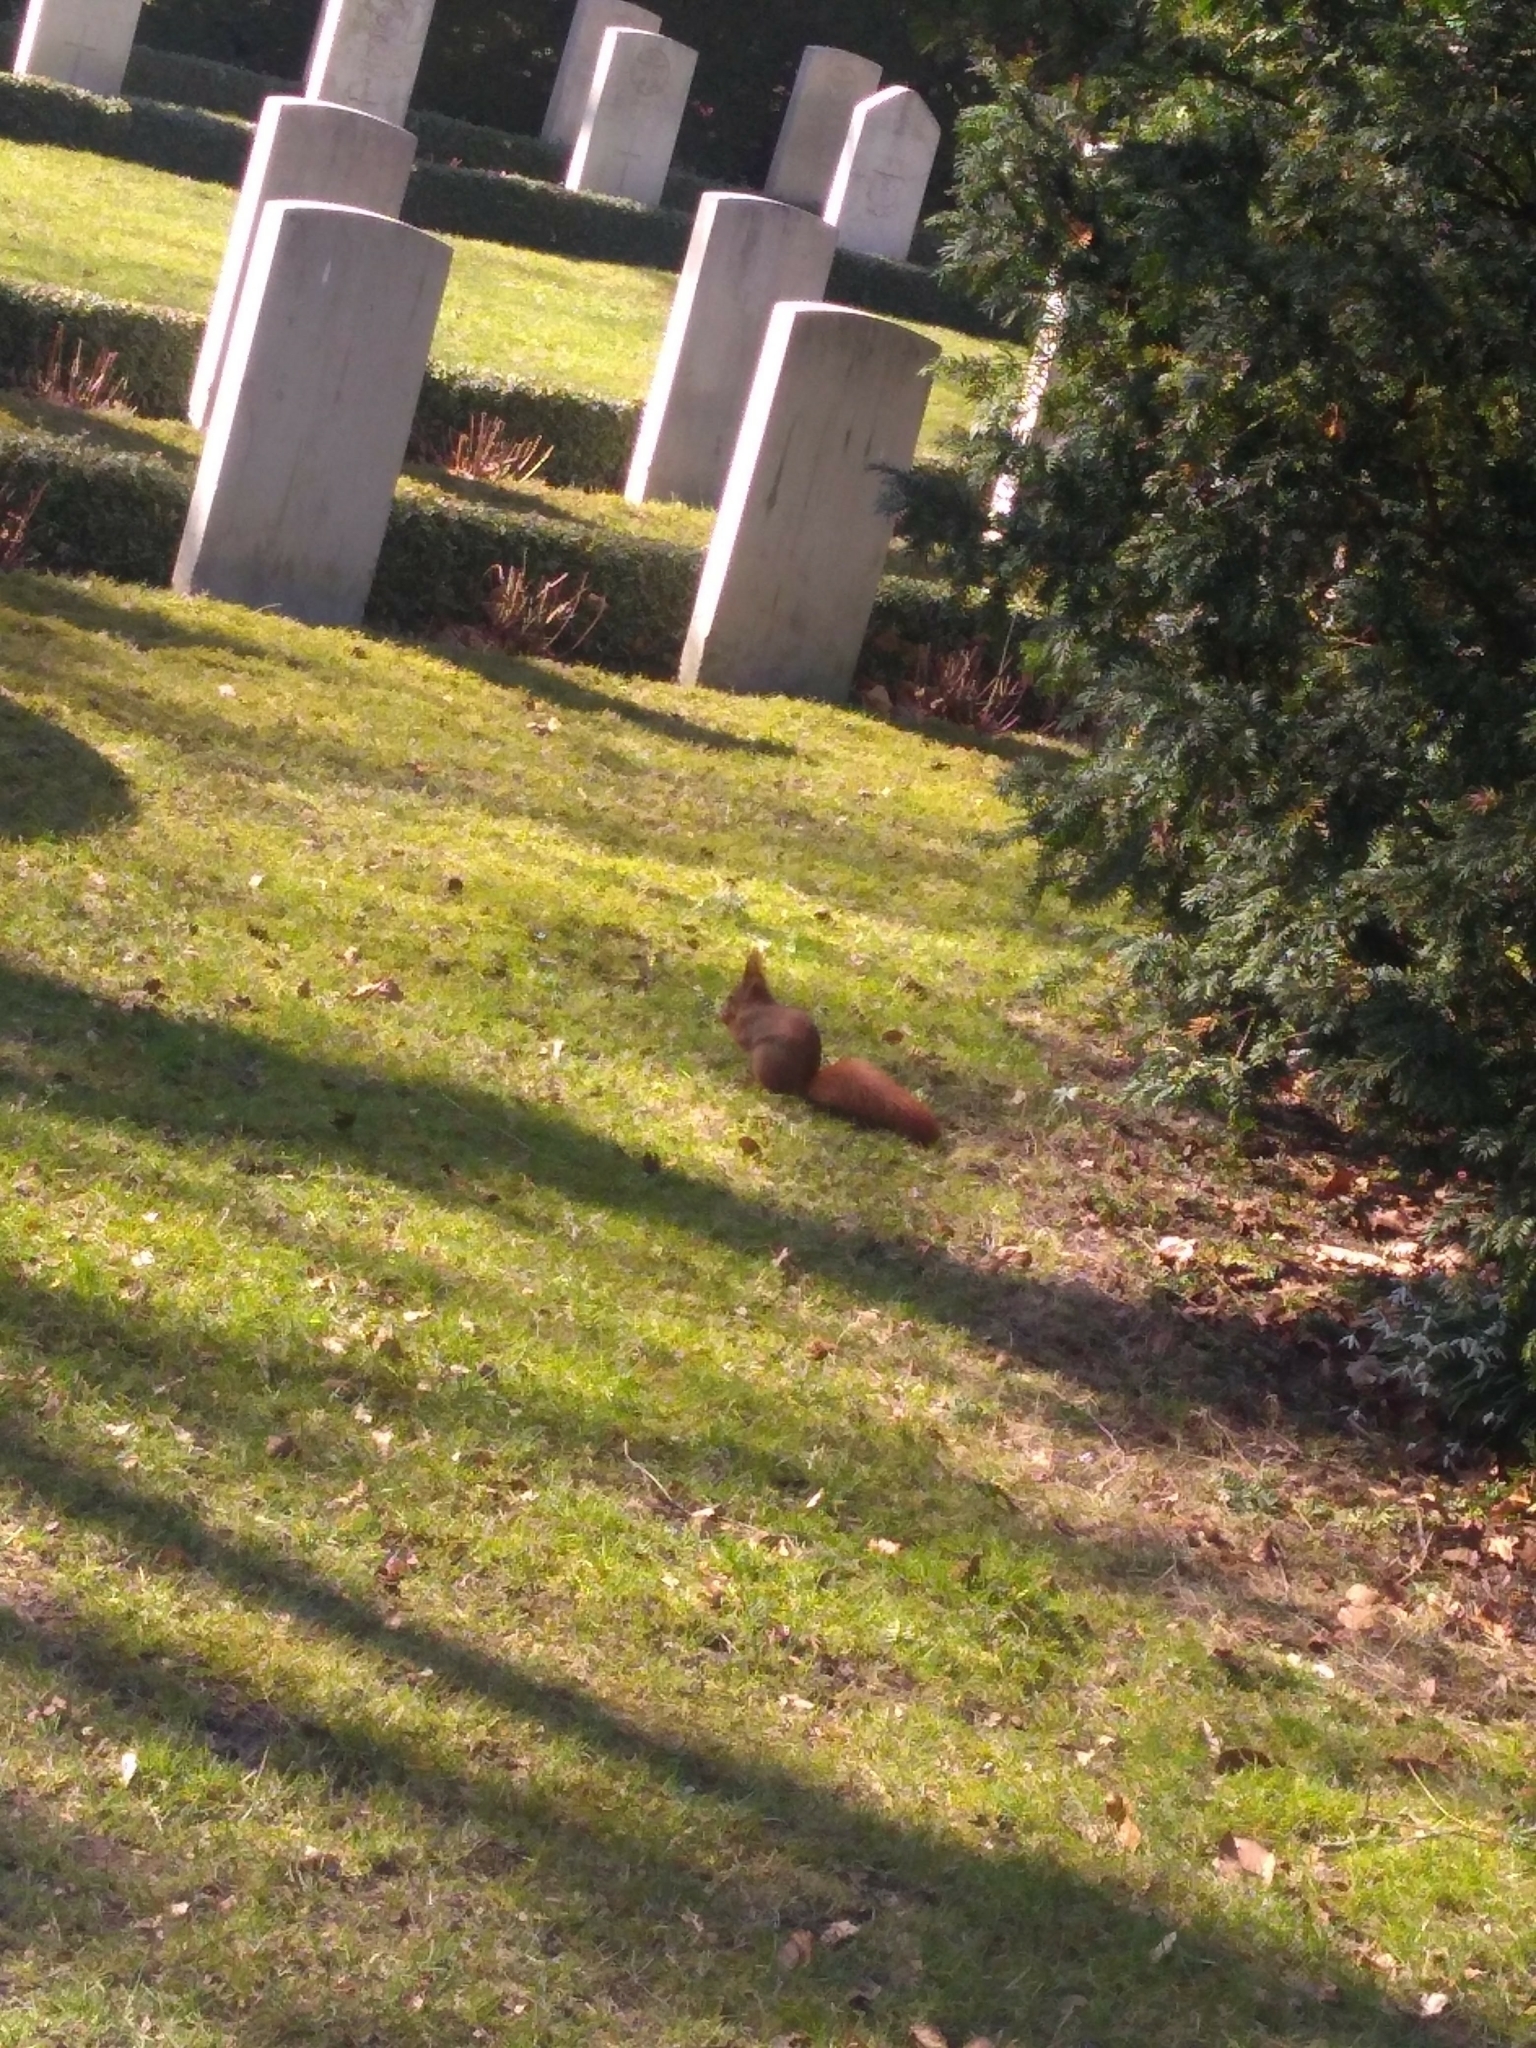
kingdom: Animalia
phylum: Chordata
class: Mammalia
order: Rodentia
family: Sciuridae
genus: Sciurus
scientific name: Sciurus vulgaris
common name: Eurasian red squirrel
